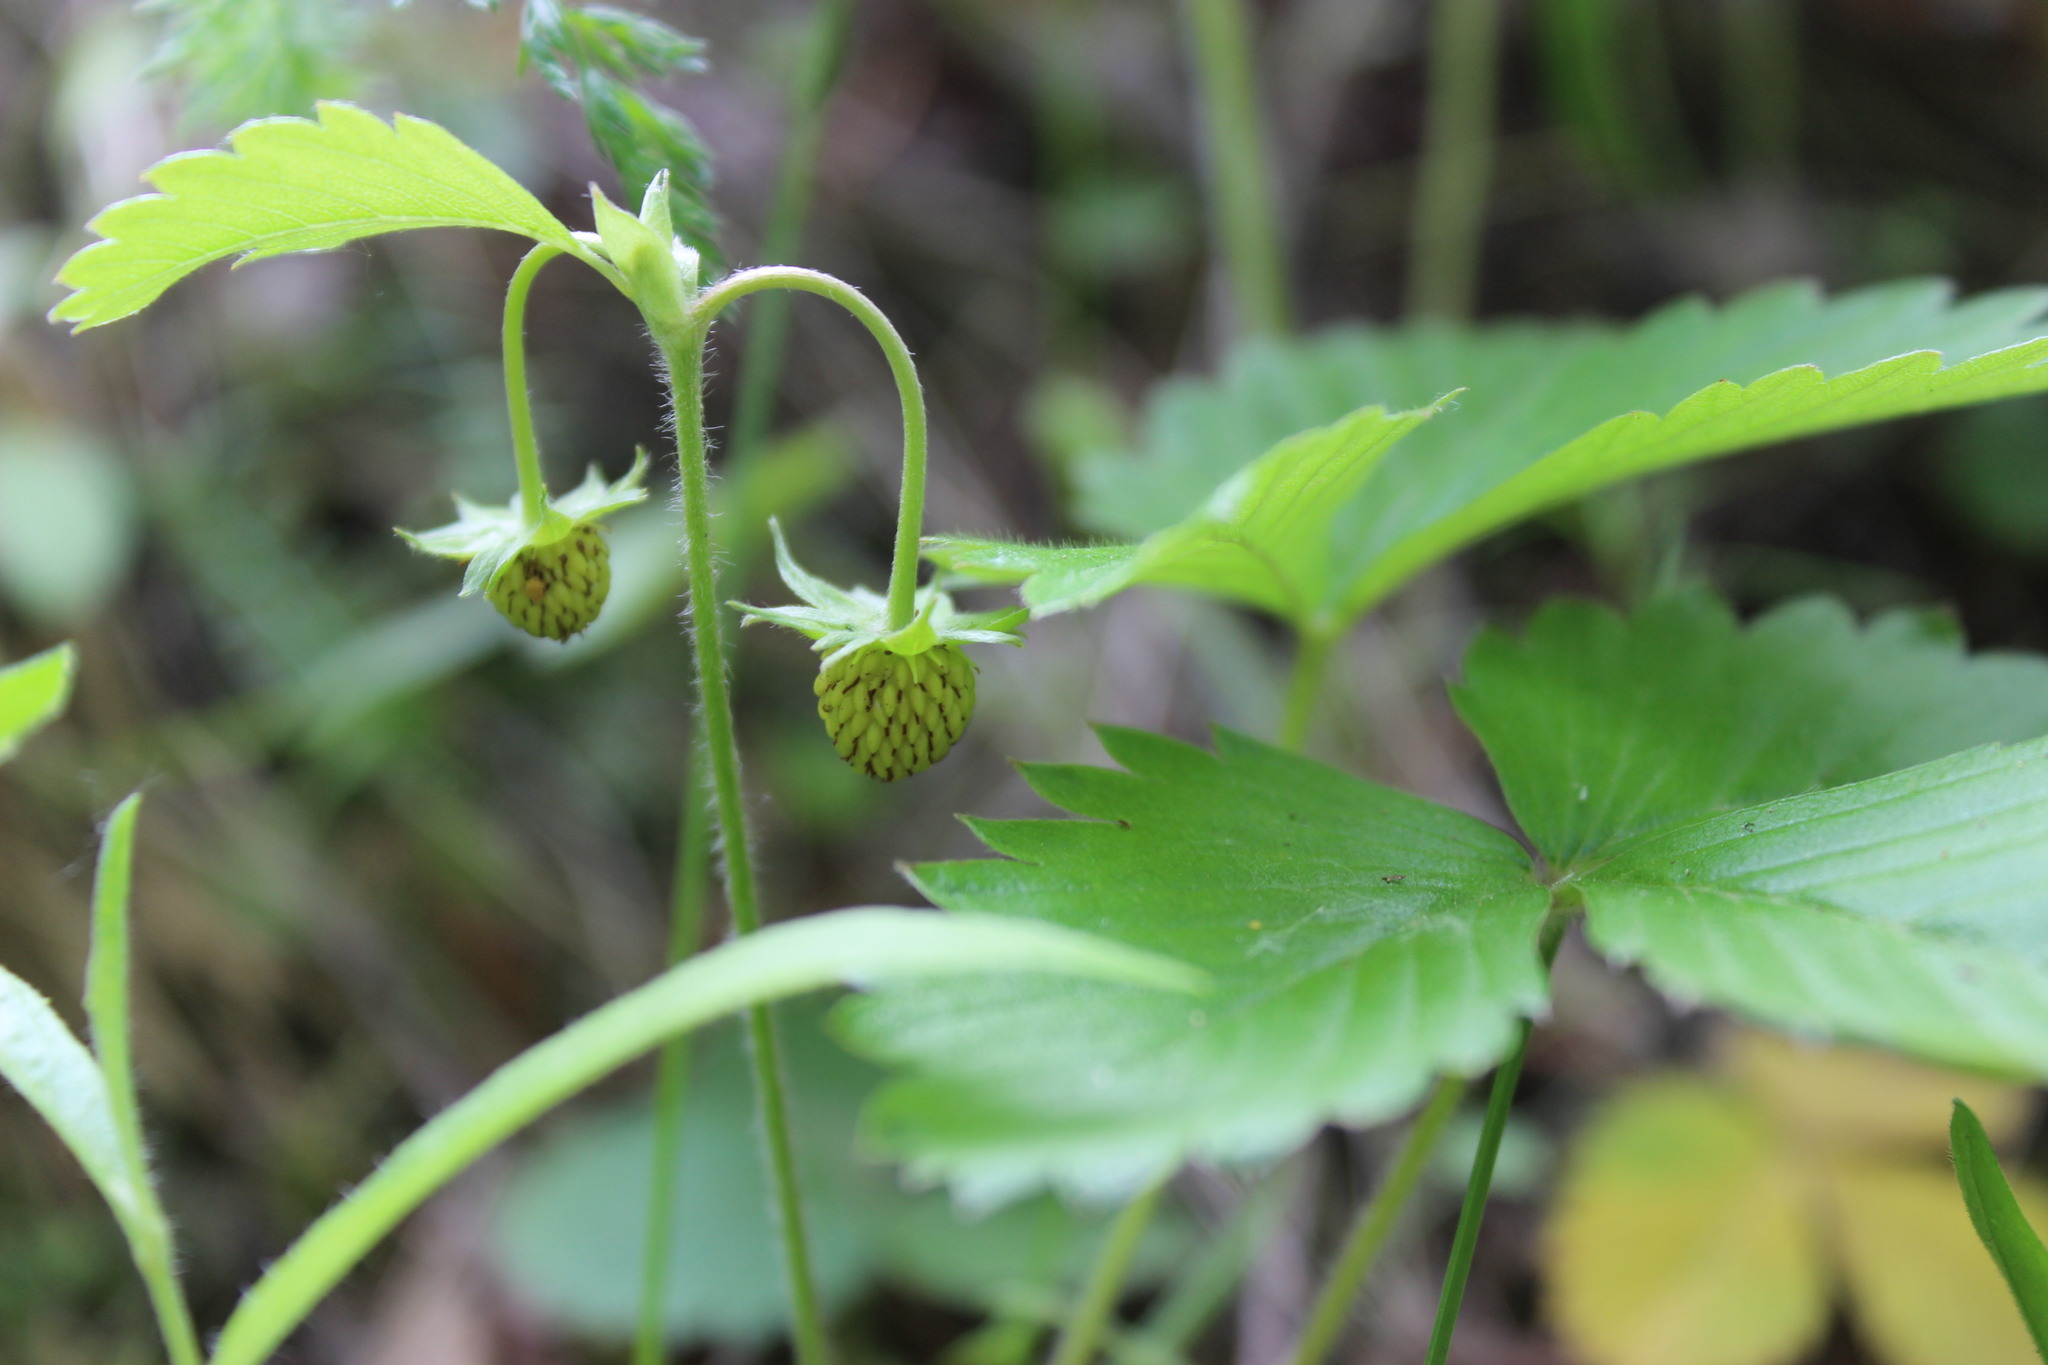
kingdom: Plantae
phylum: Tracheophyta
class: Magnoliopsida
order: Rosales
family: Rosaceae
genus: Fragaria
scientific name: Fragaria vesca
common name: Wild strawberry
